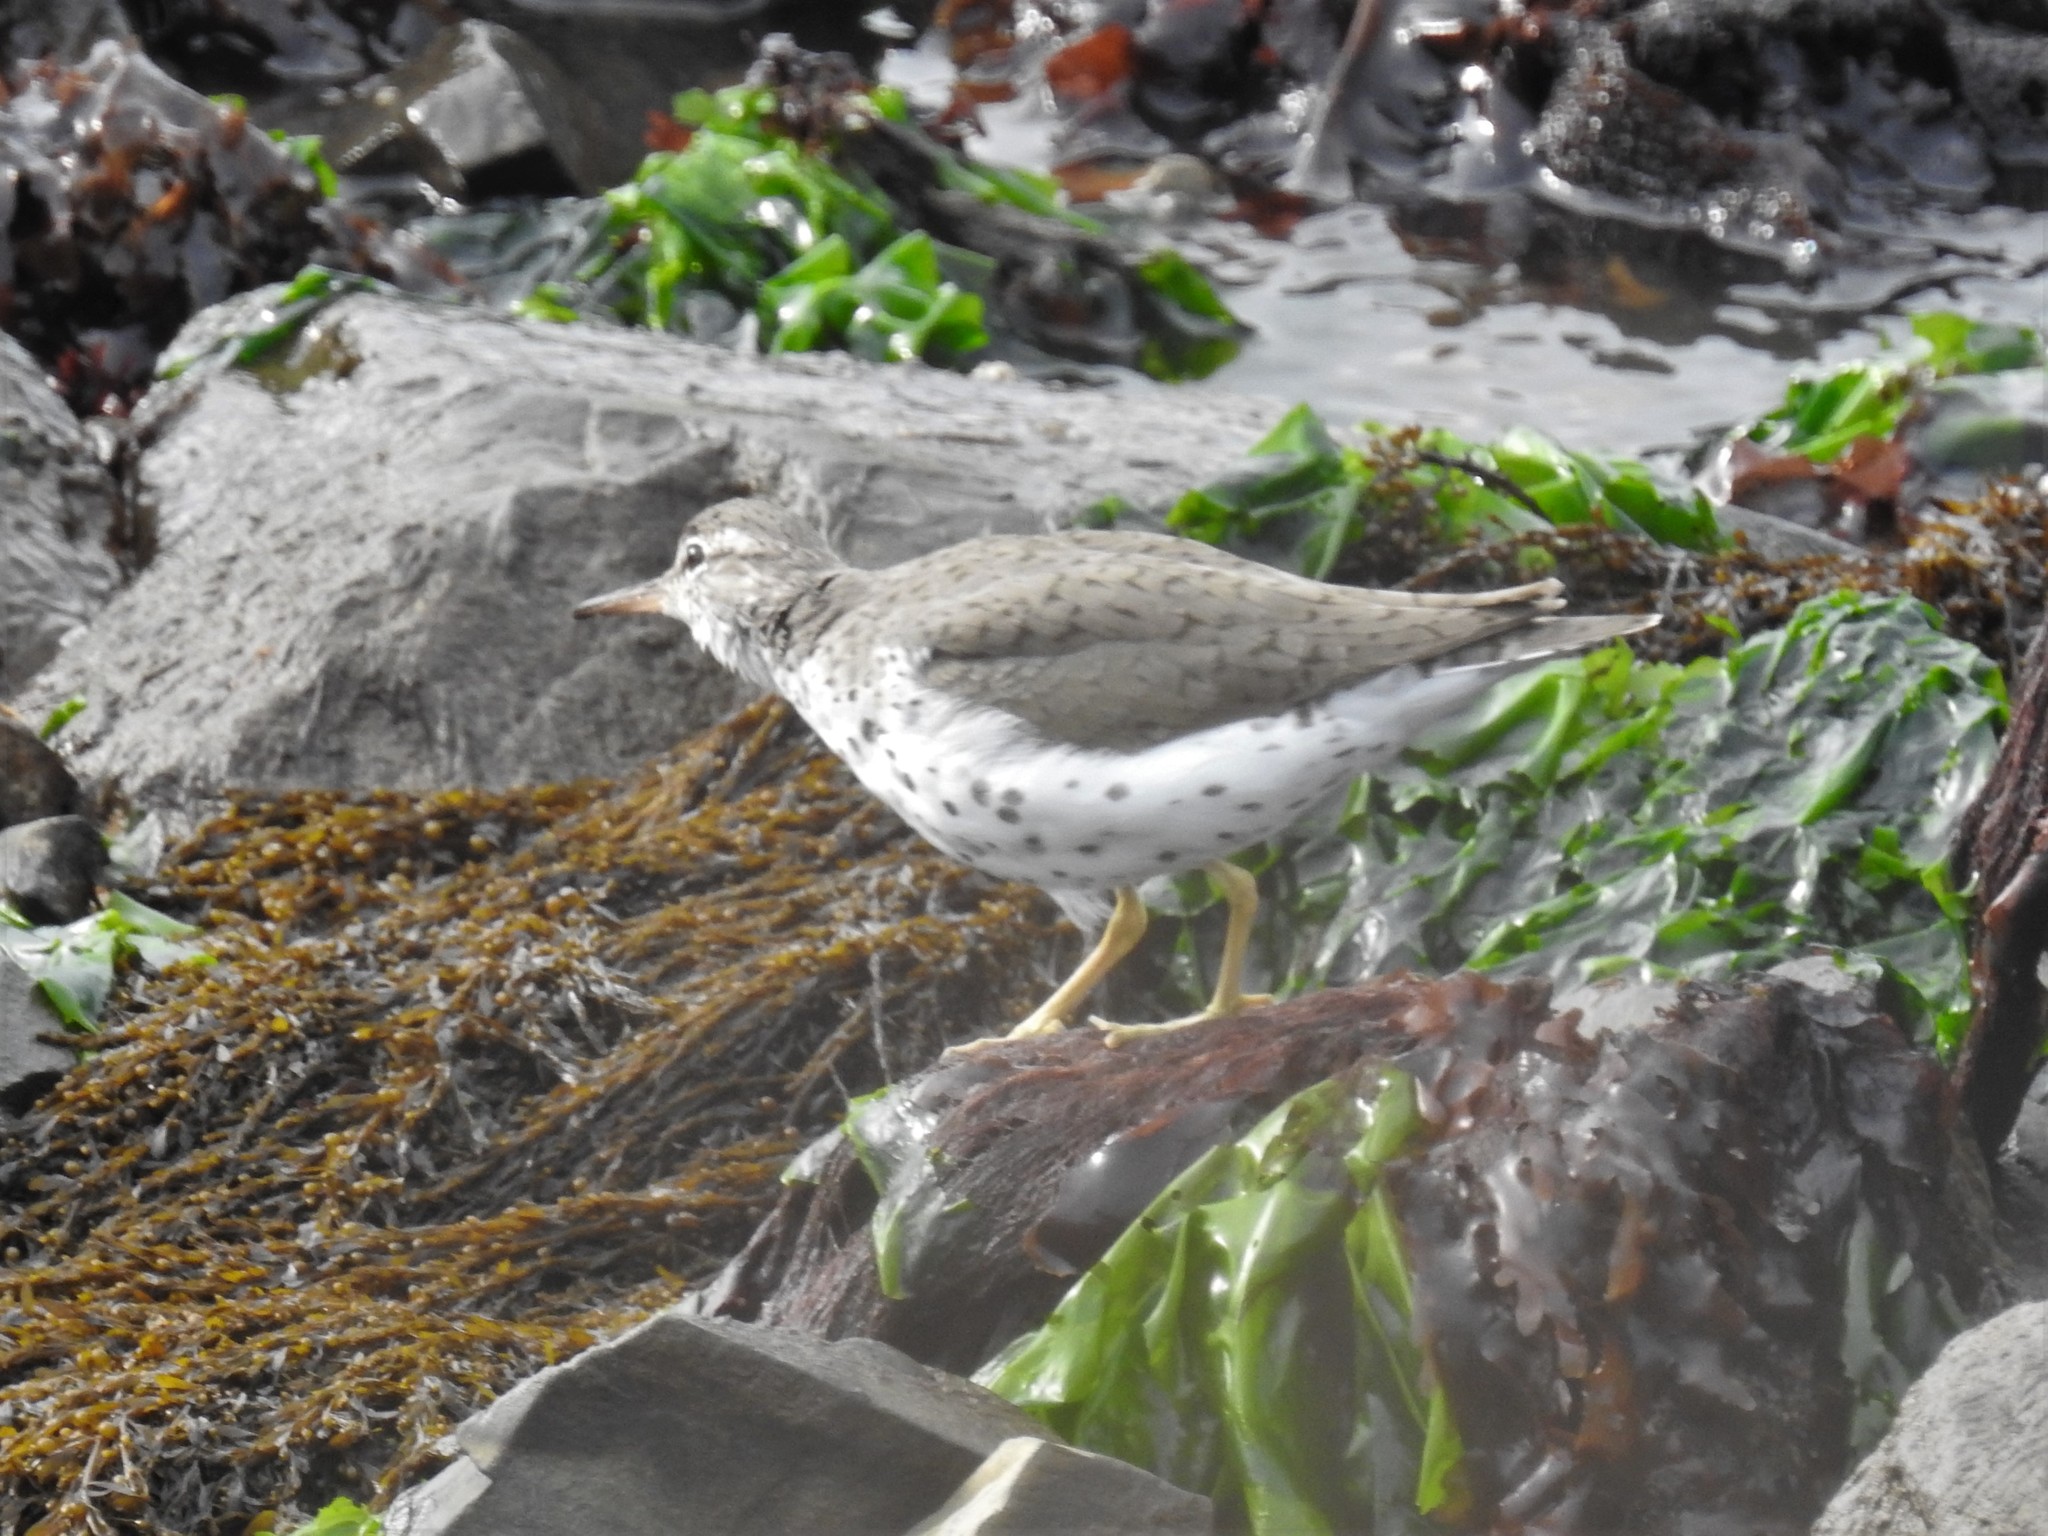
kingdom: Animalia
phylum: Chordata
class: Aves
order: Charadriiformes
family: Scolopacidae
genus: Actitis
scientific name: Actitis macularius
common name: Spotted sandpiper
